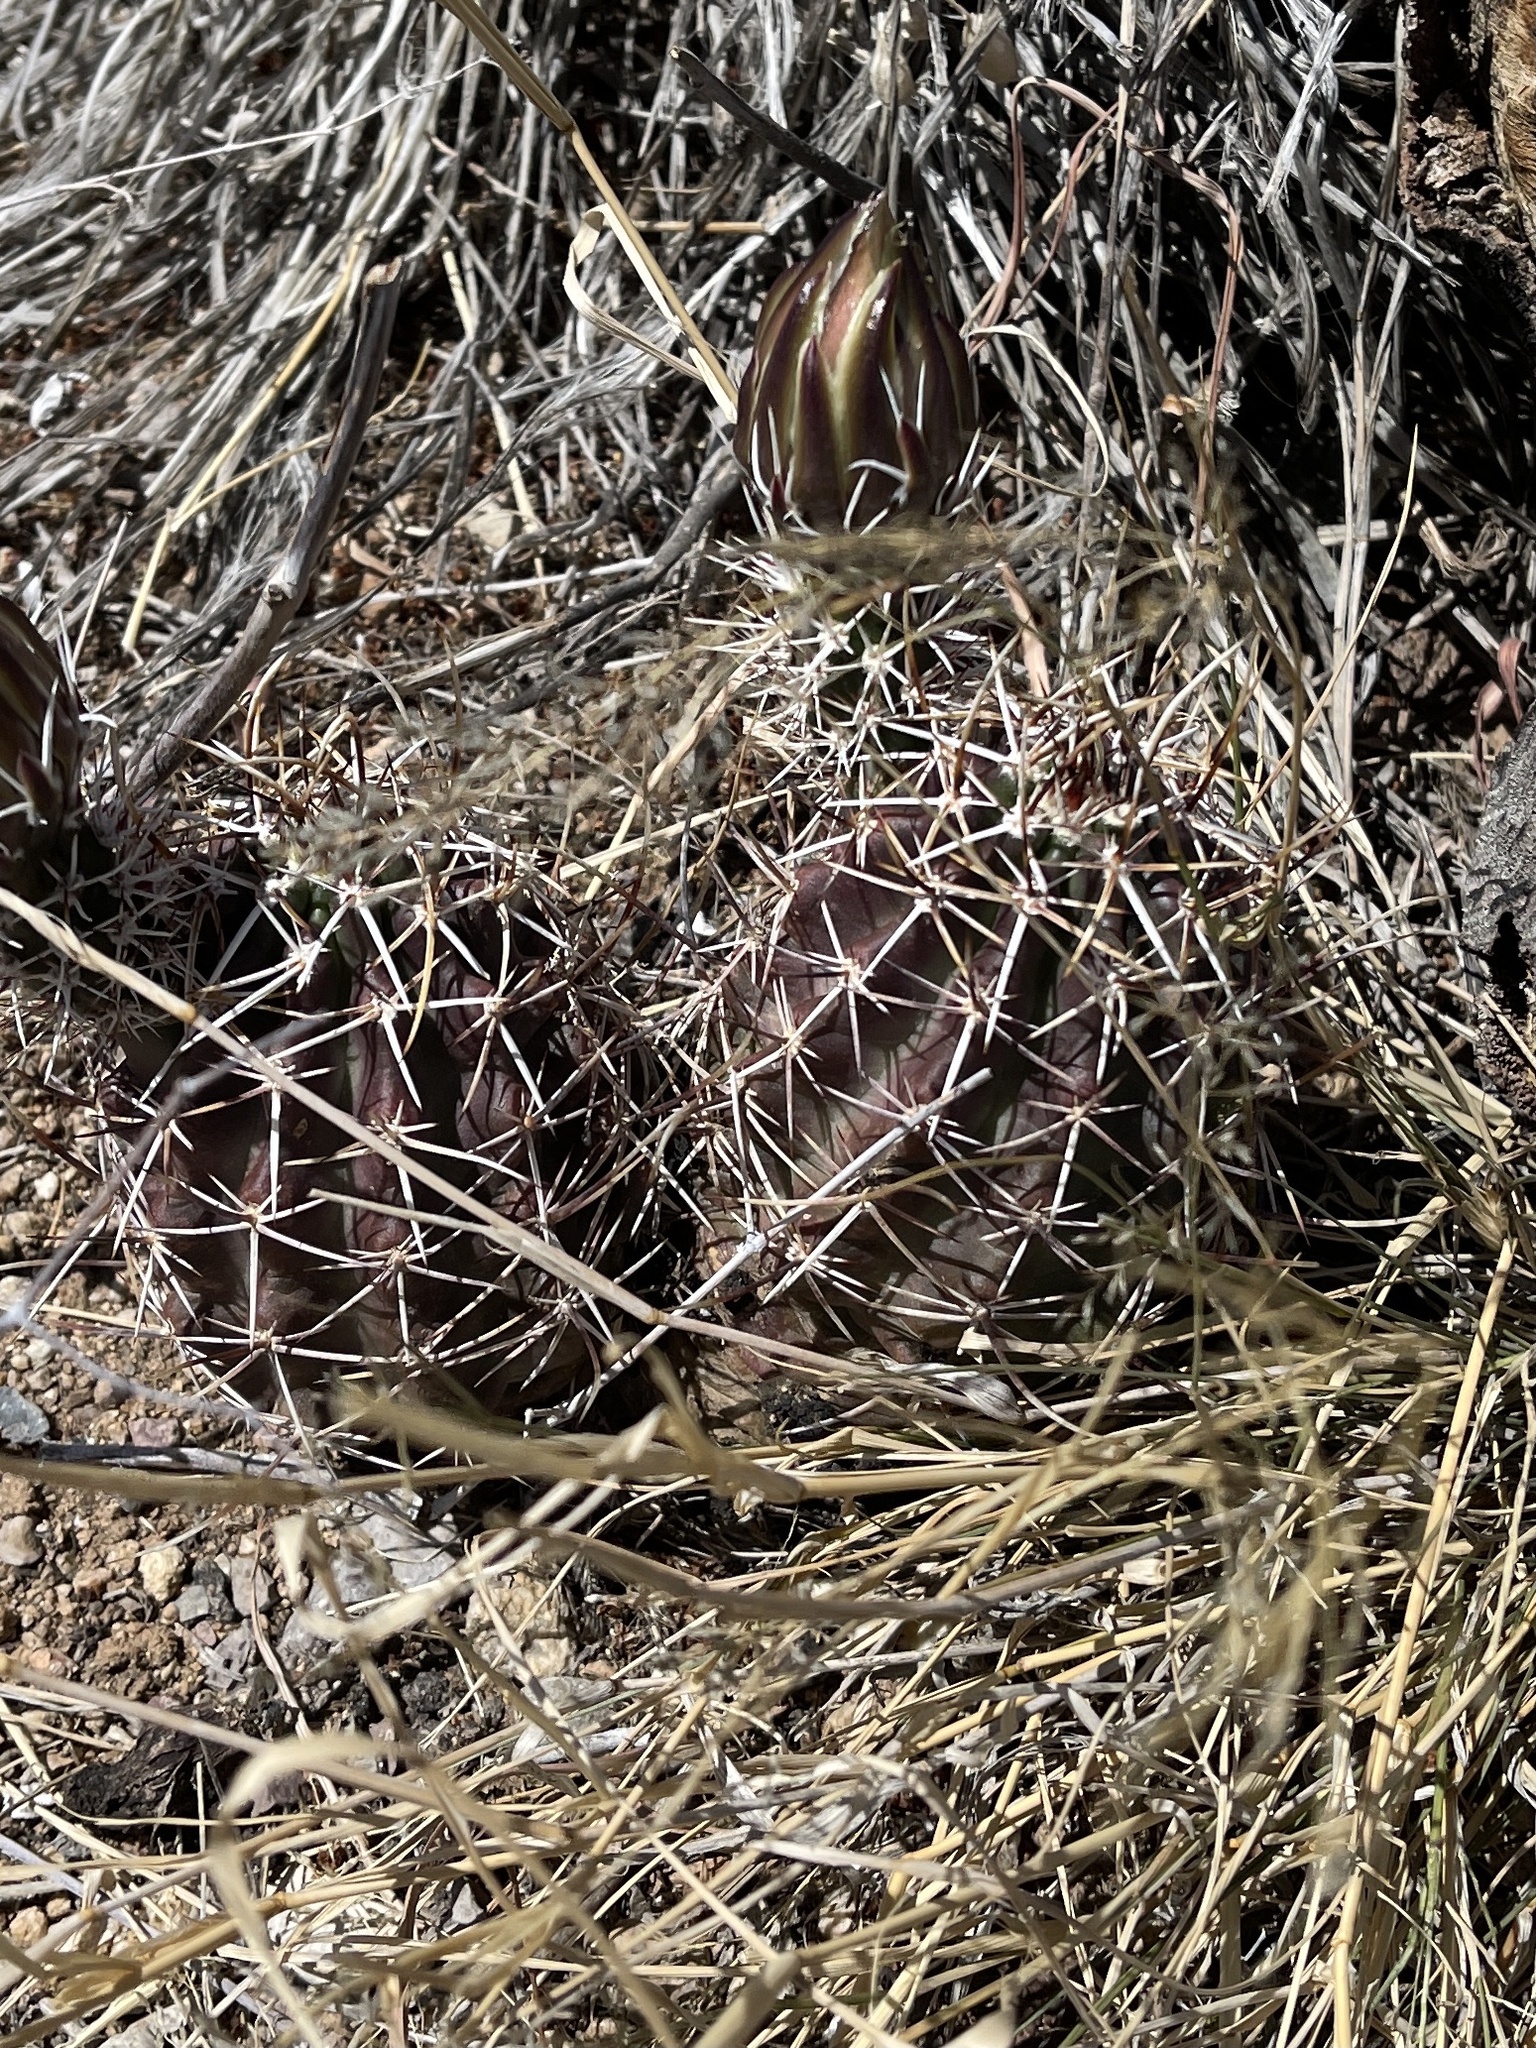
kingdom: Plantae
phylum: Tracheophyta
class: Magnoliopsida
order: Caryophyllales
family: Cactaceae
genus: Echinocereus
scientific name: Echinocereus fendleri
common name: Fendler's hedgehog cactus
